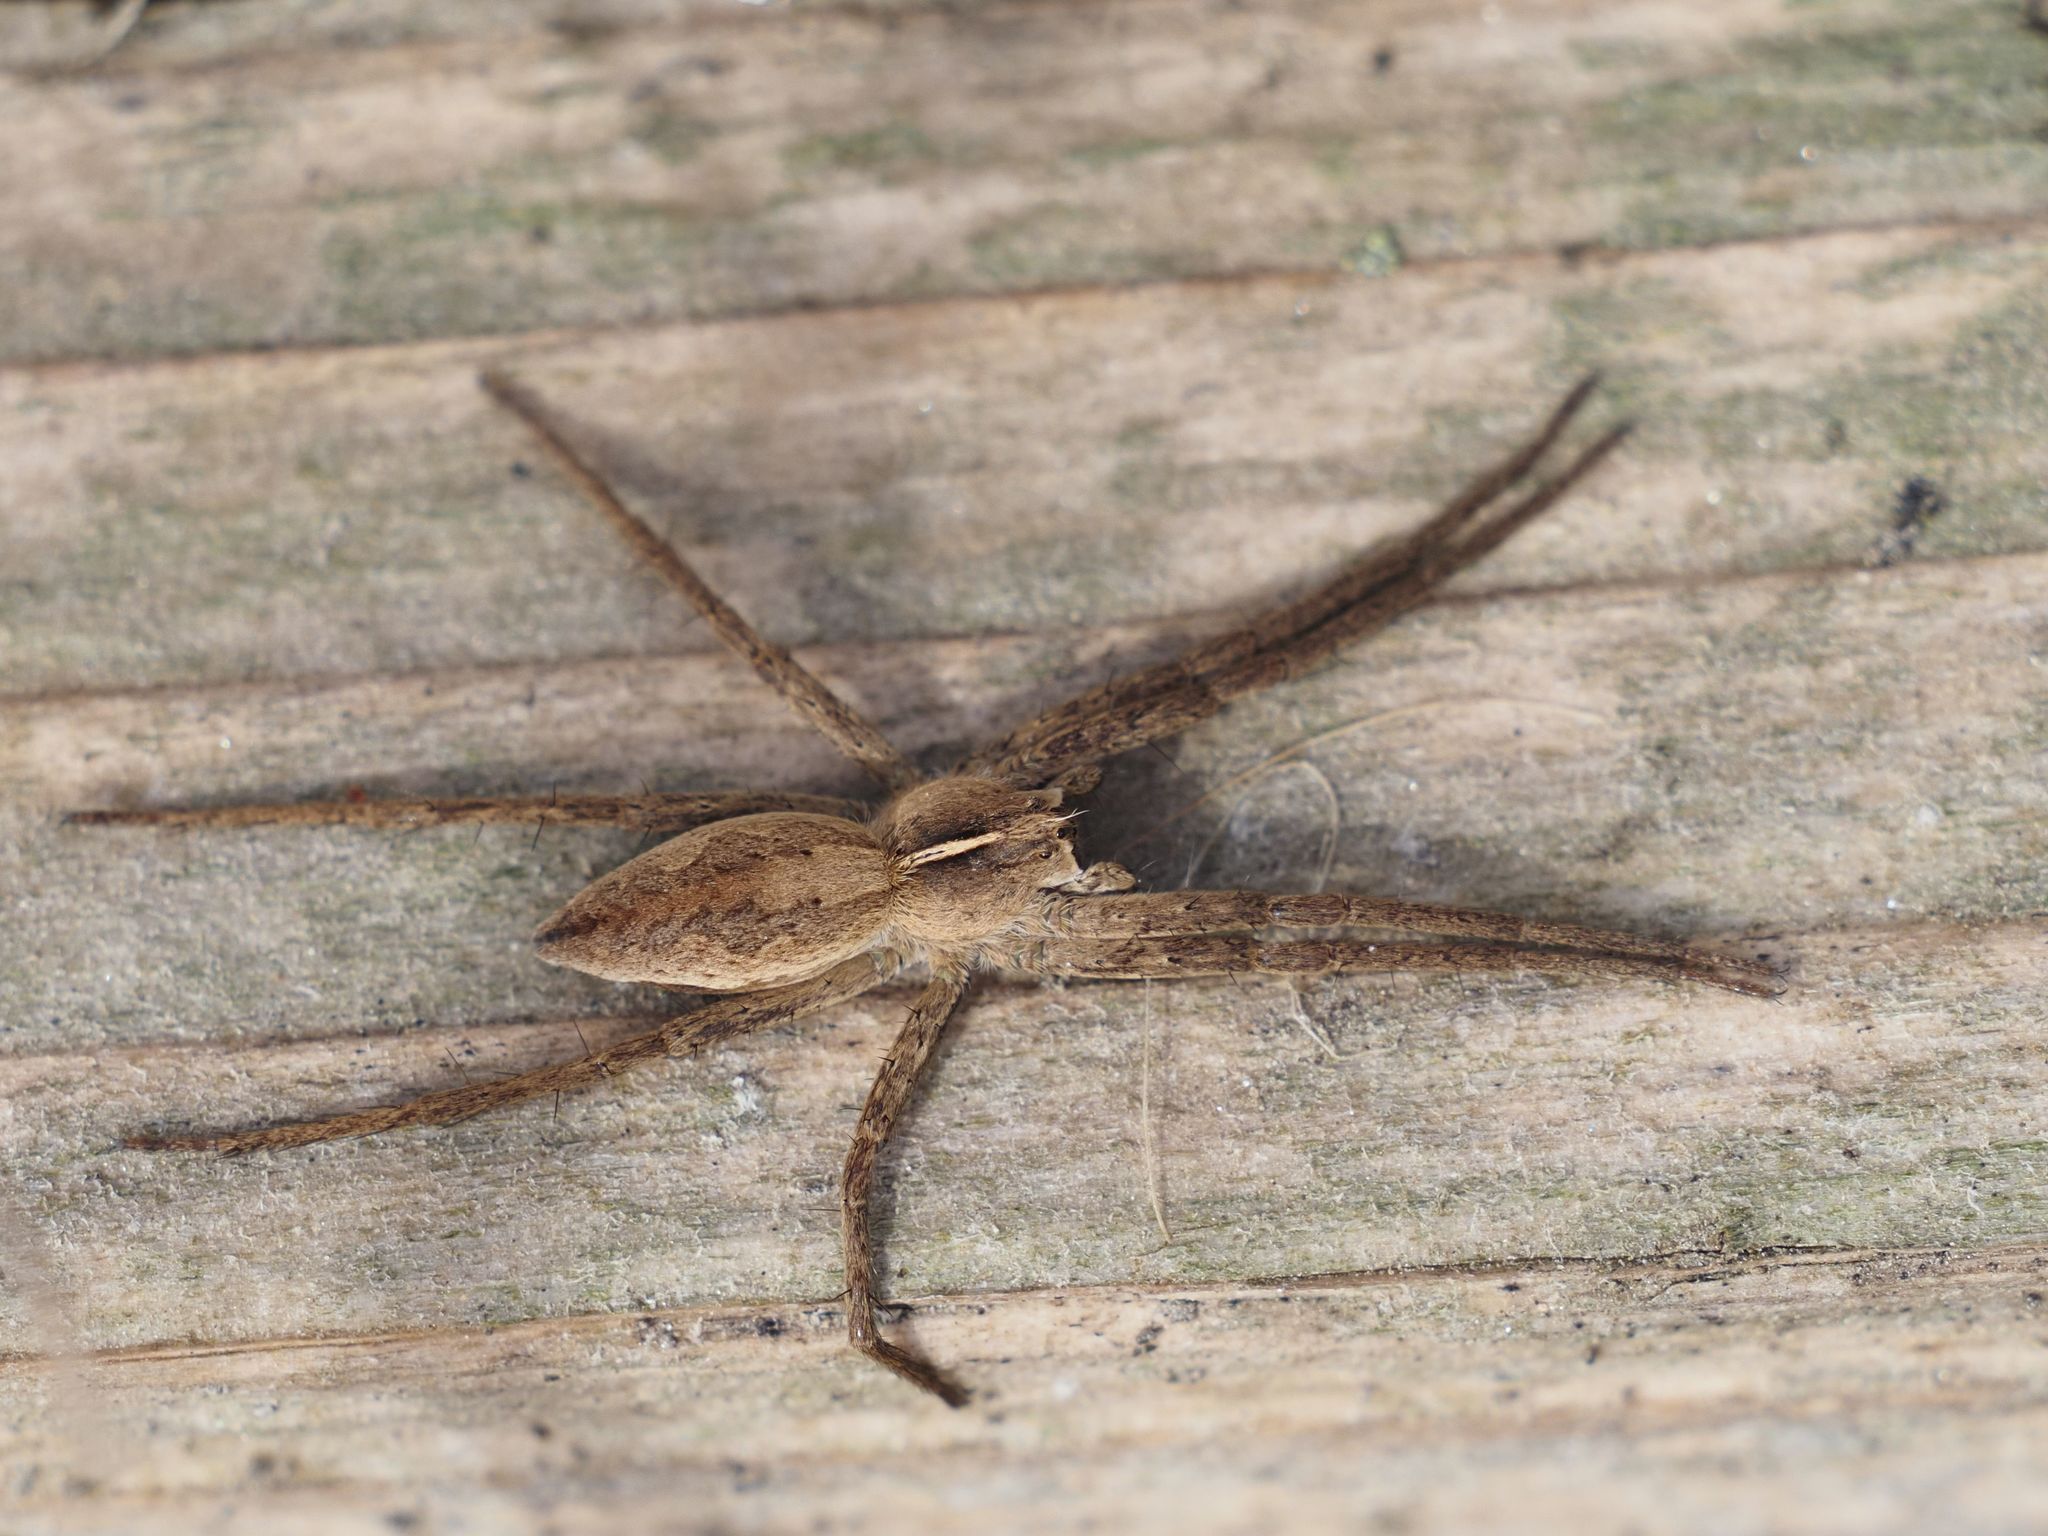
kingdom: Animalia
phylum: Arthropoda
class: Arachnida
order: Araneae
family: Pisauridae
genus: Pisaura
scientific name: Pisaura mirabilis
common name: Tent spider
